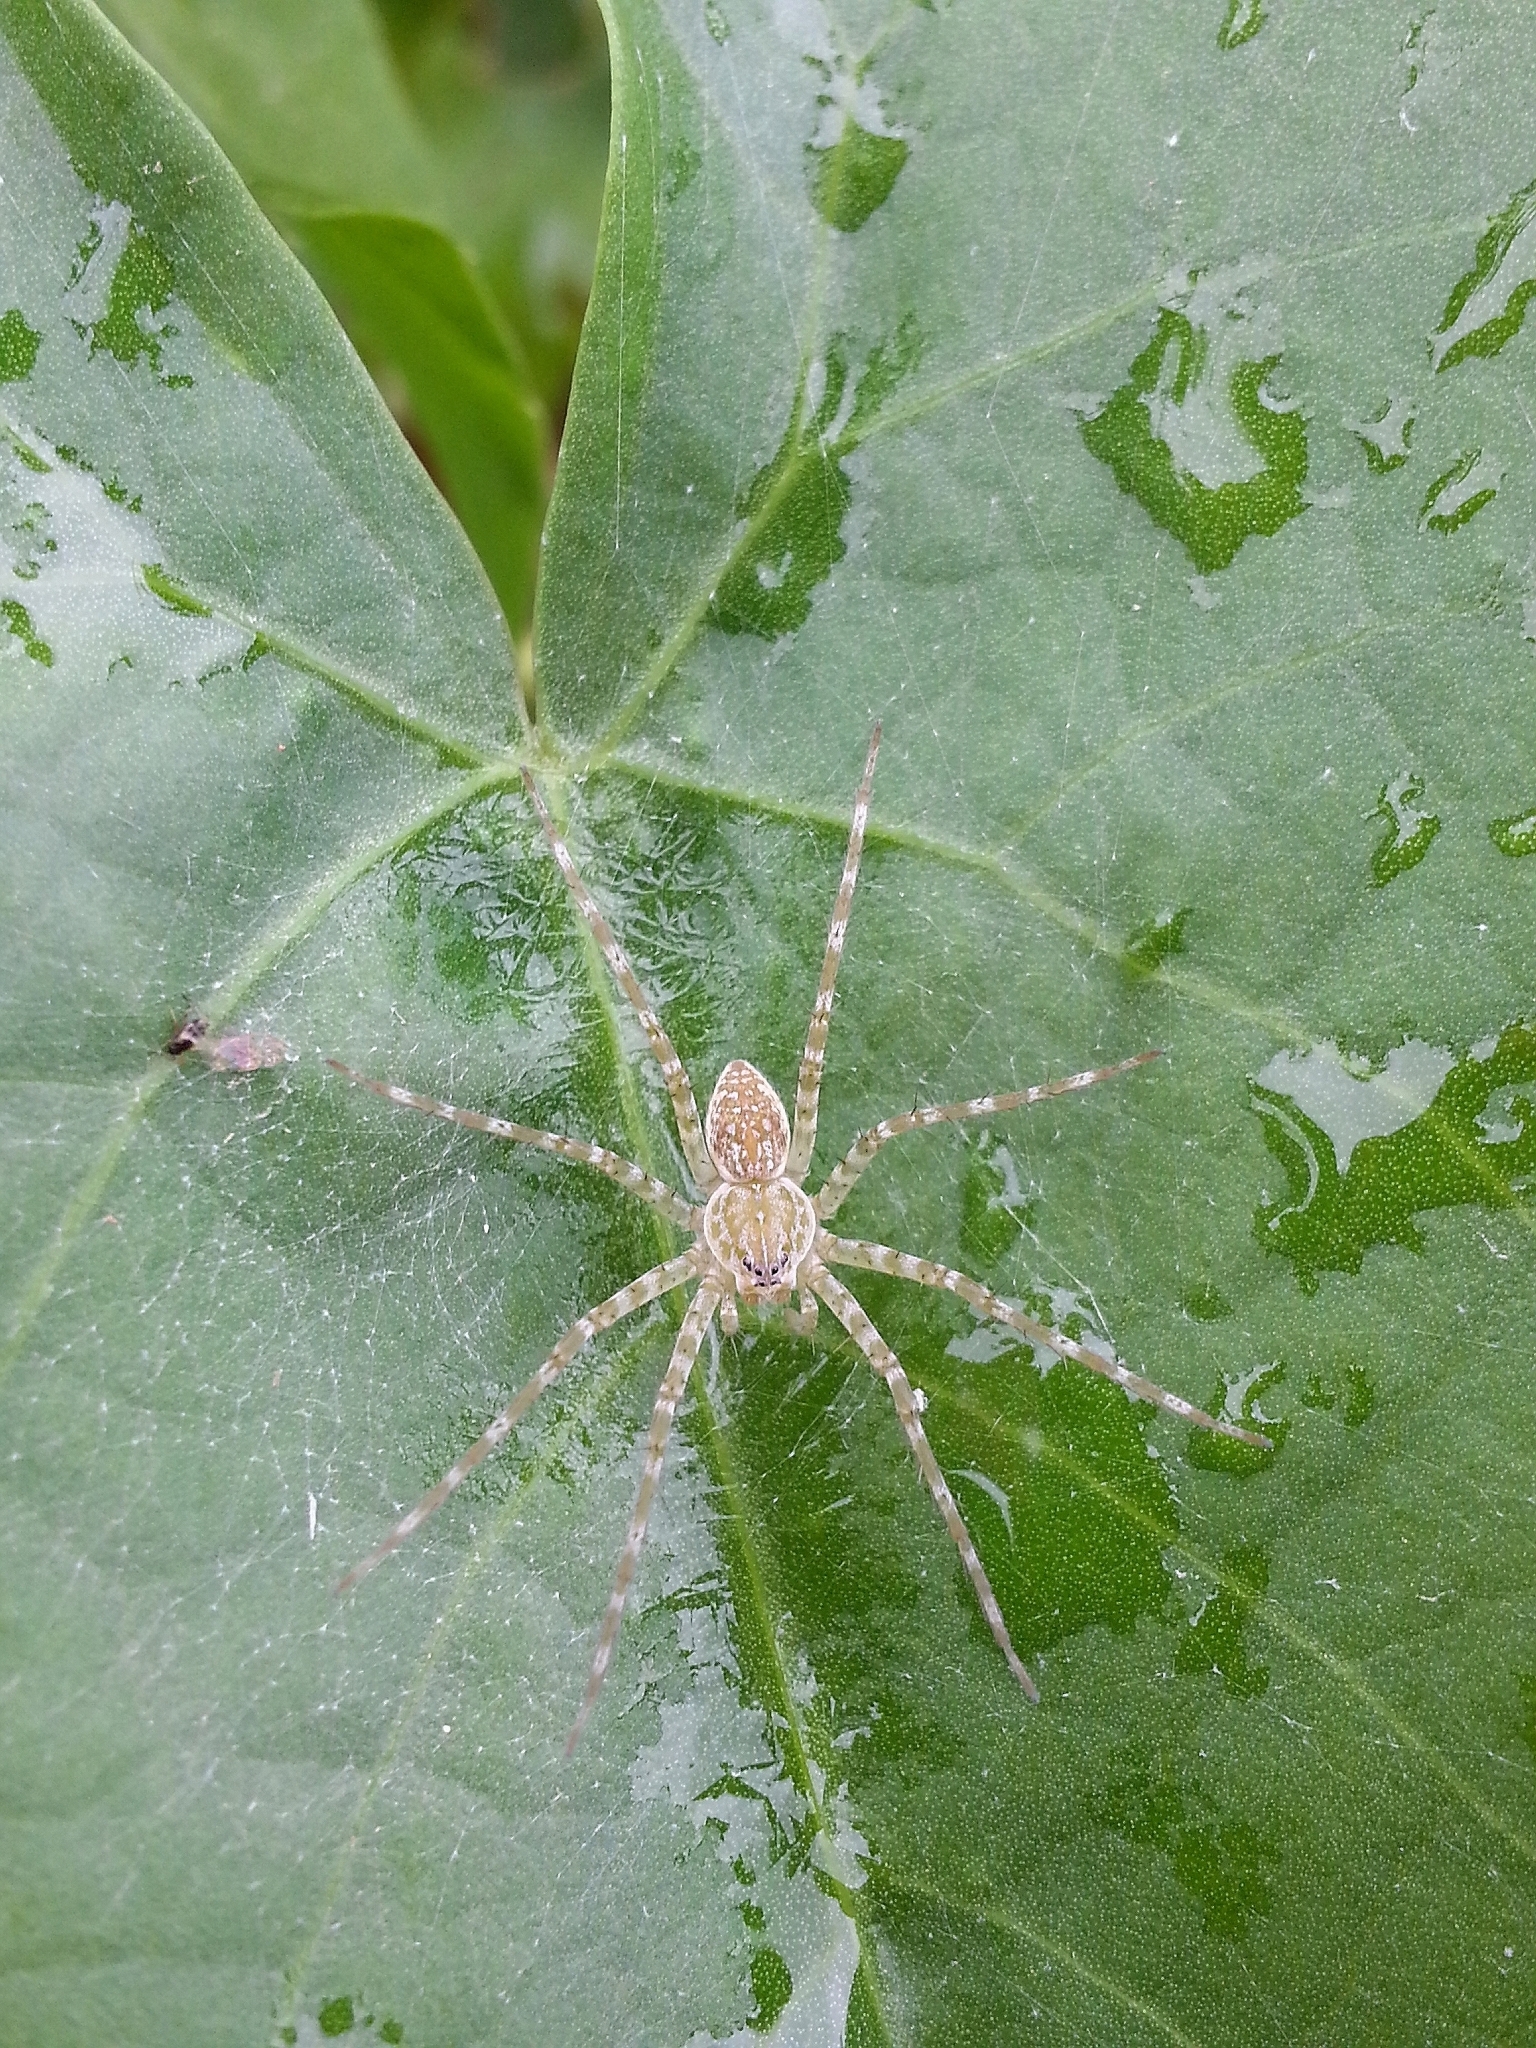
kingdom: Animalia
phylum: Arthropoda
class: Arachnida
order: Araneae
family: Pisauridae
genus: Thaumasia
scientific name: Thaumasia velox
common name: Nursery web spiders
